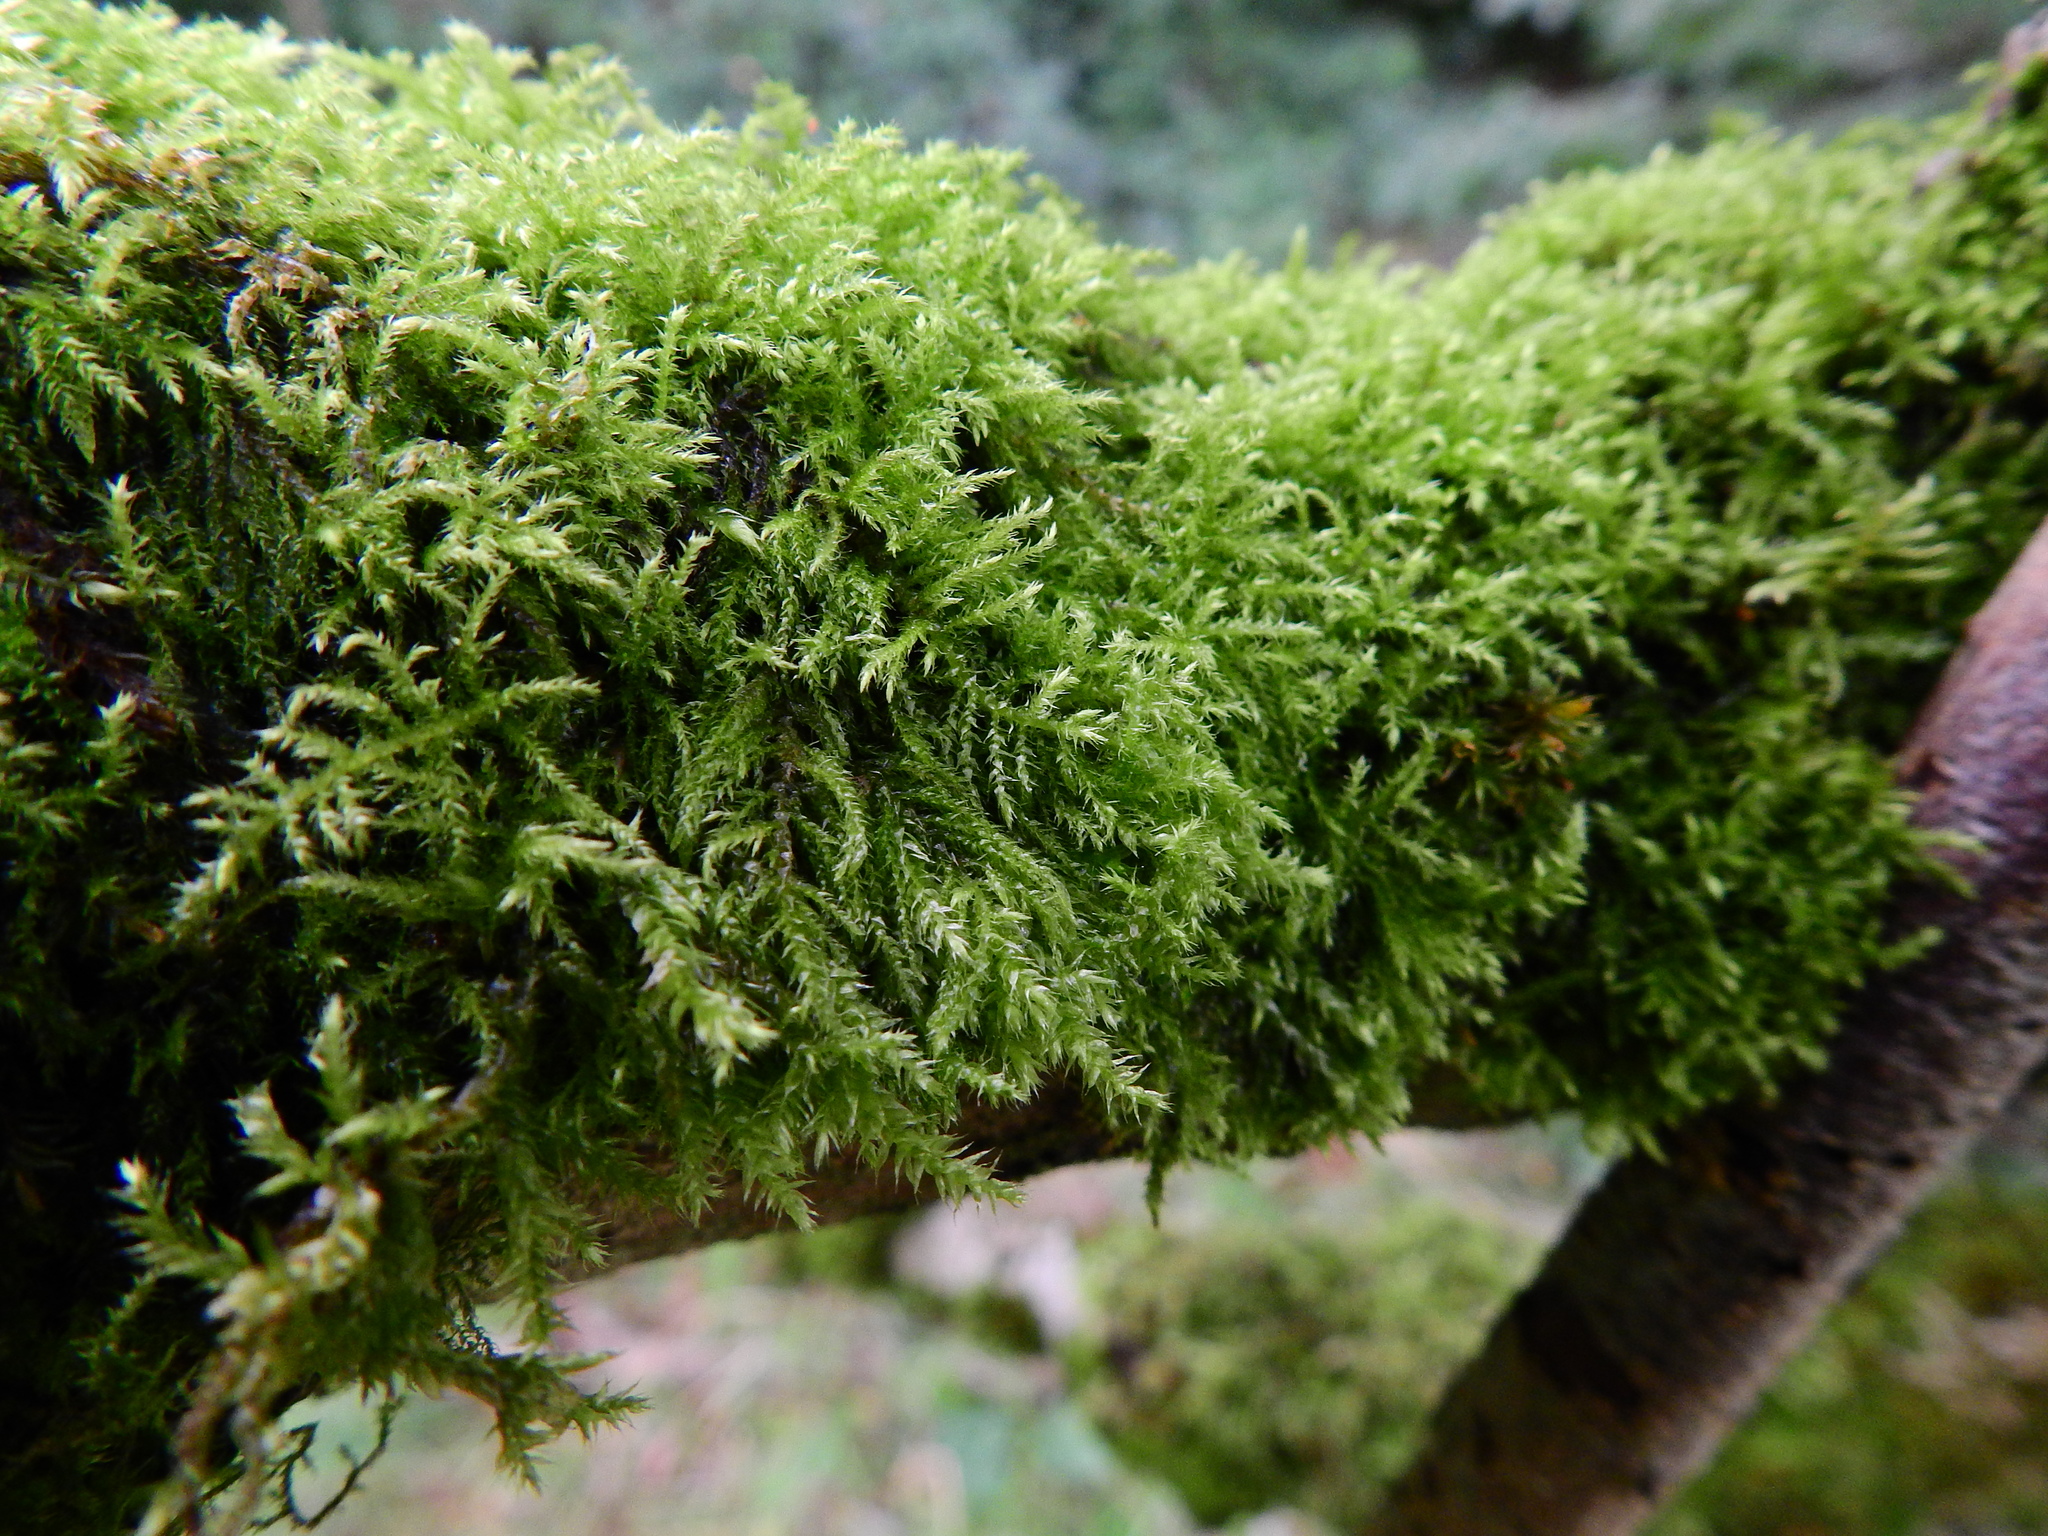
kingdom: Plantae
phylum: Bryophyta
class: Bryopsida
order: Hypnales
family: Brachytheciaceae
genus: Kindbergia
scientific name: Kindbergia praelonga
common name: Slender beaked moss
